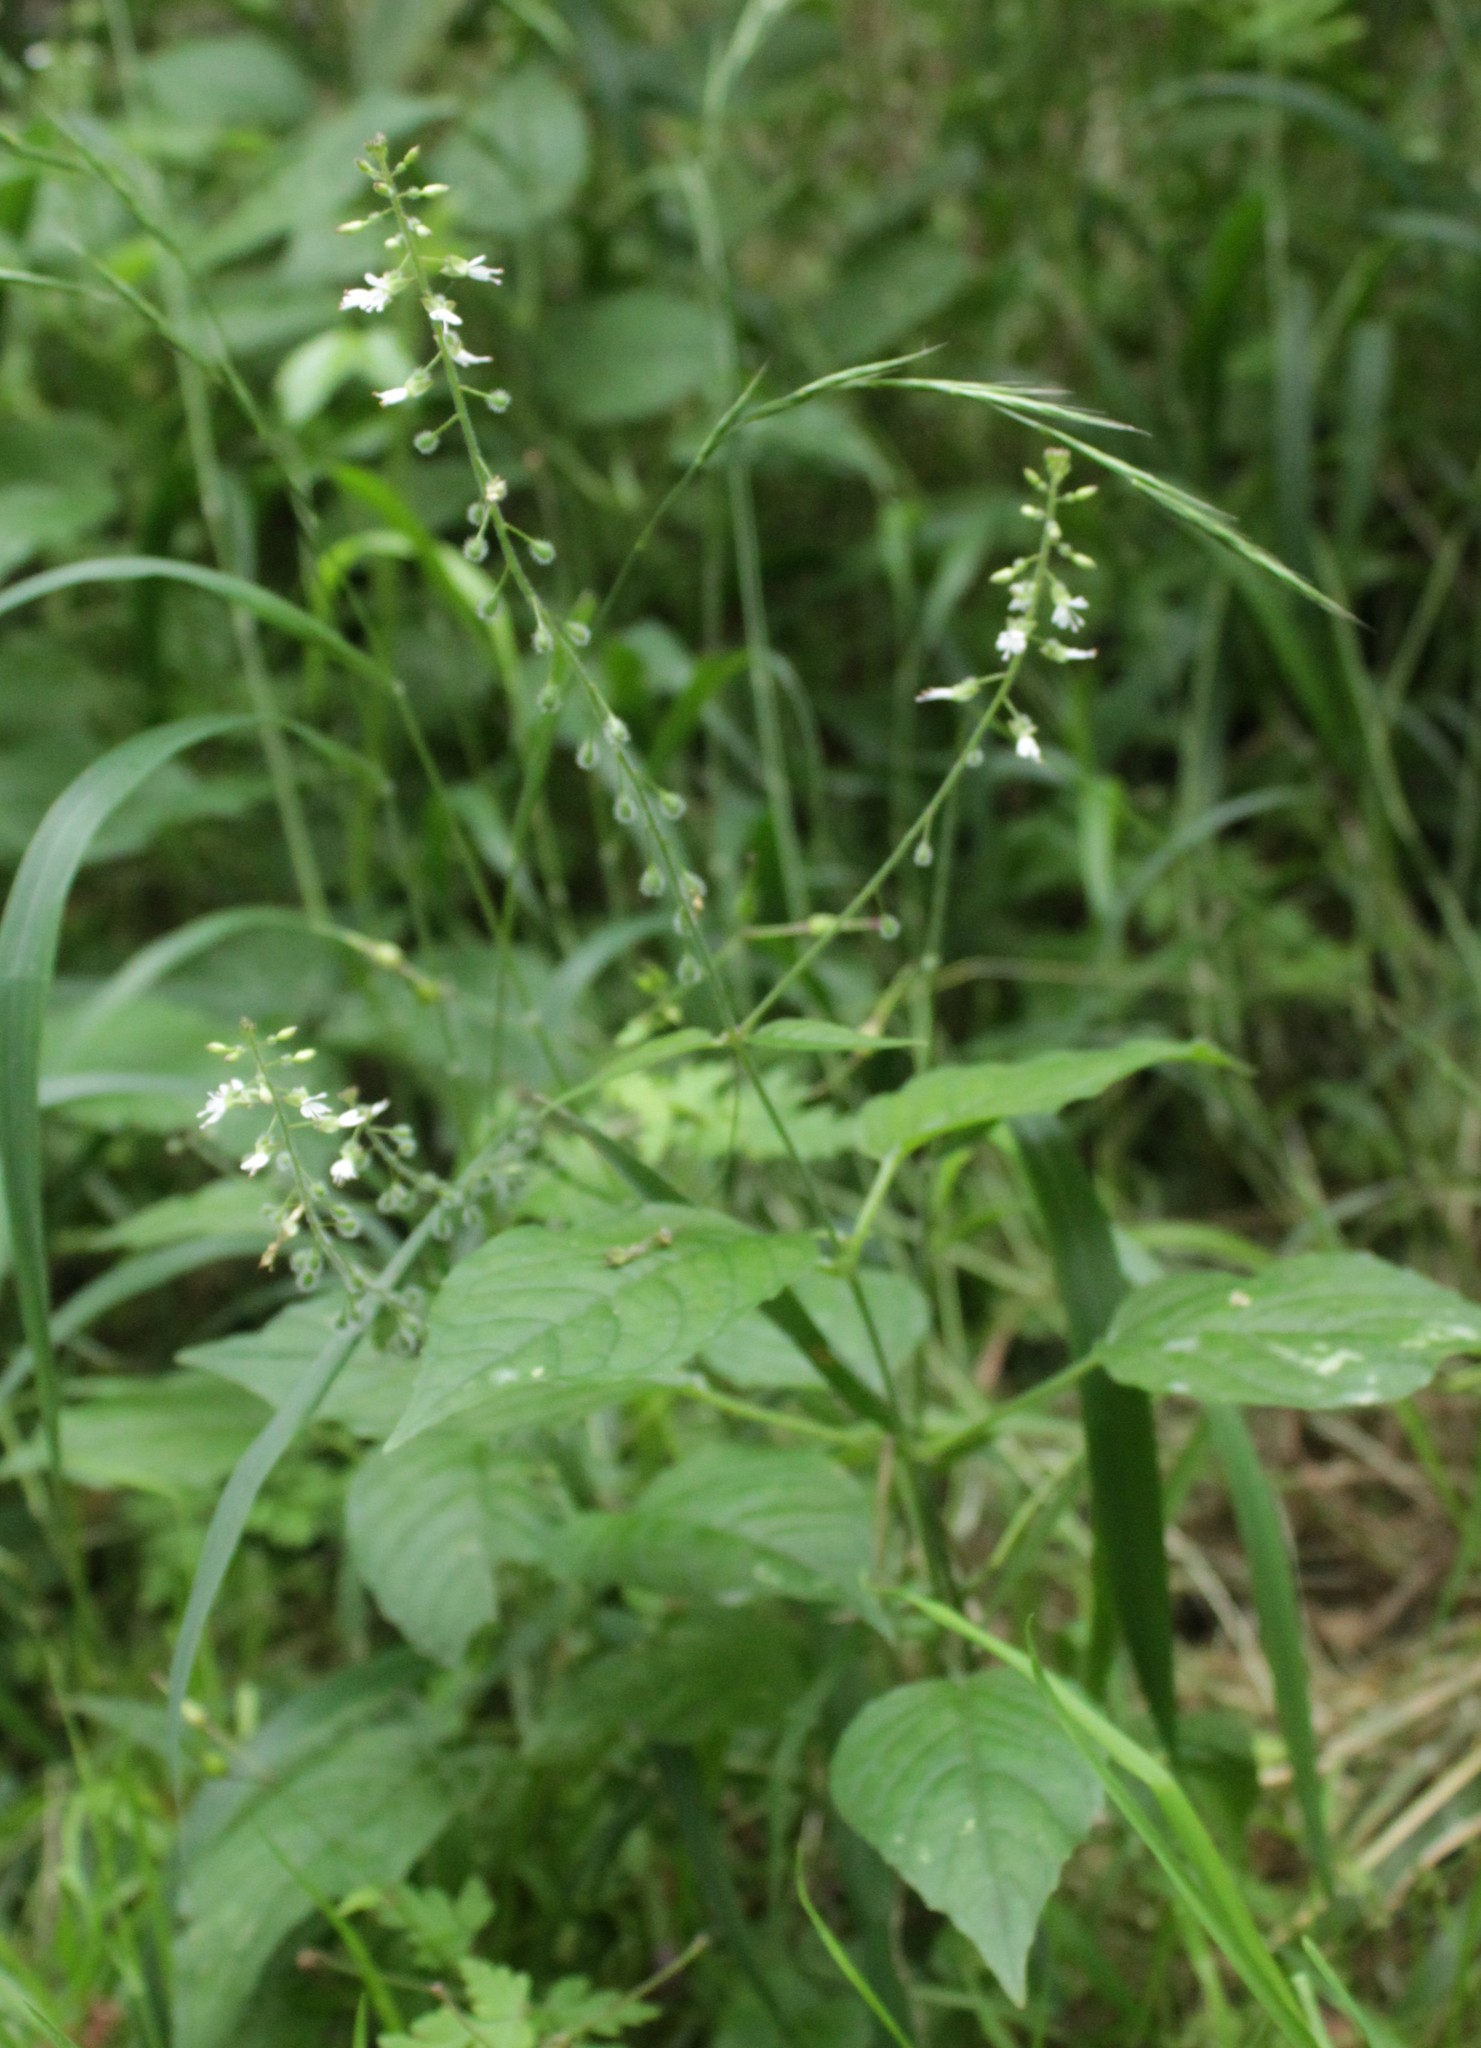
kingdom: Plantae
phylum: Tracheophyta
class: Magnoliopsida
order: Myrtales
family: Onagraceae
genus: Circaea
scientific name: Circaea lutetiana
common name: Enchanter's-nightshade
